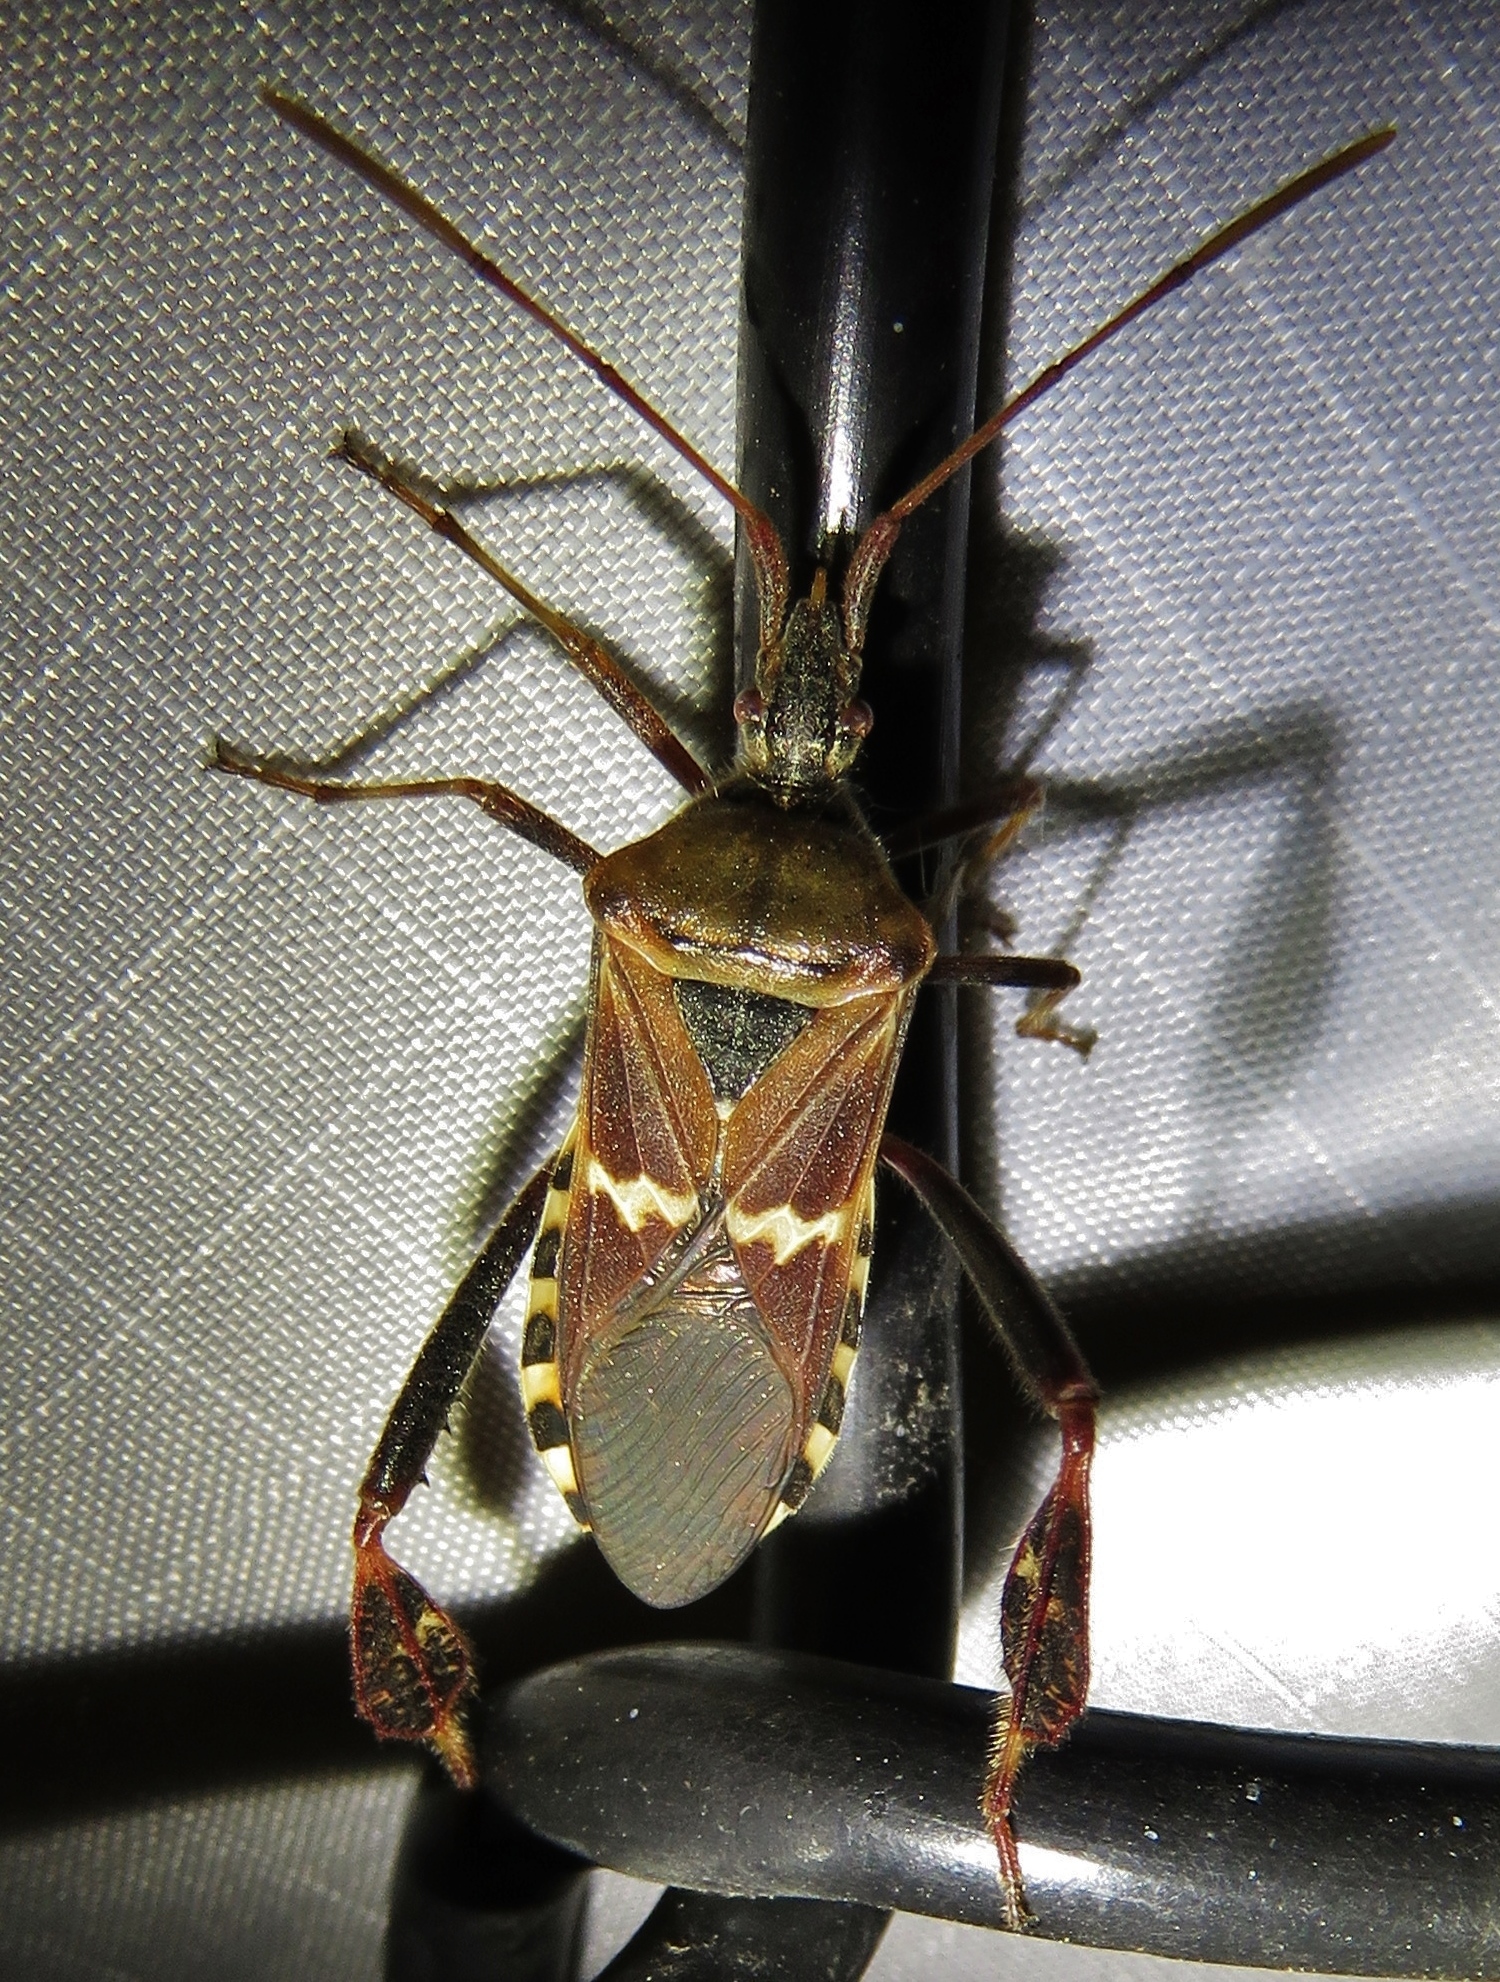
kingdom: Animalia
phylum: Arthropoda
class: Insecta
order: Hemiptera
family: Coreidae
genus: Leptoglossus
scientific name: Leptoglossus clypealis
